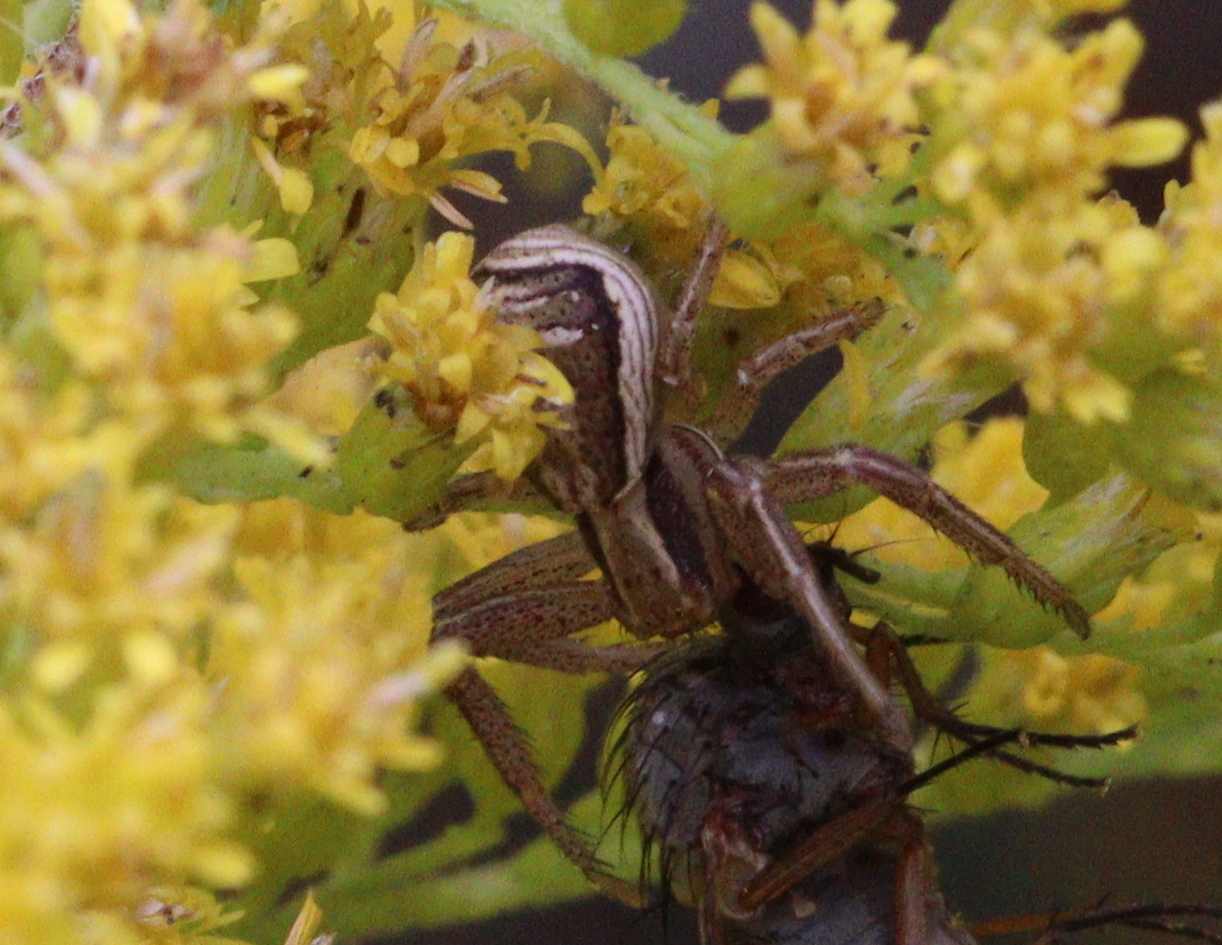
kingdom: Animalia
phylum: Arthropoda
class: Arachnida
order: Araneae
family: Thomisidae
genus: Xysticus
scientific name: Xysticus ulmi
